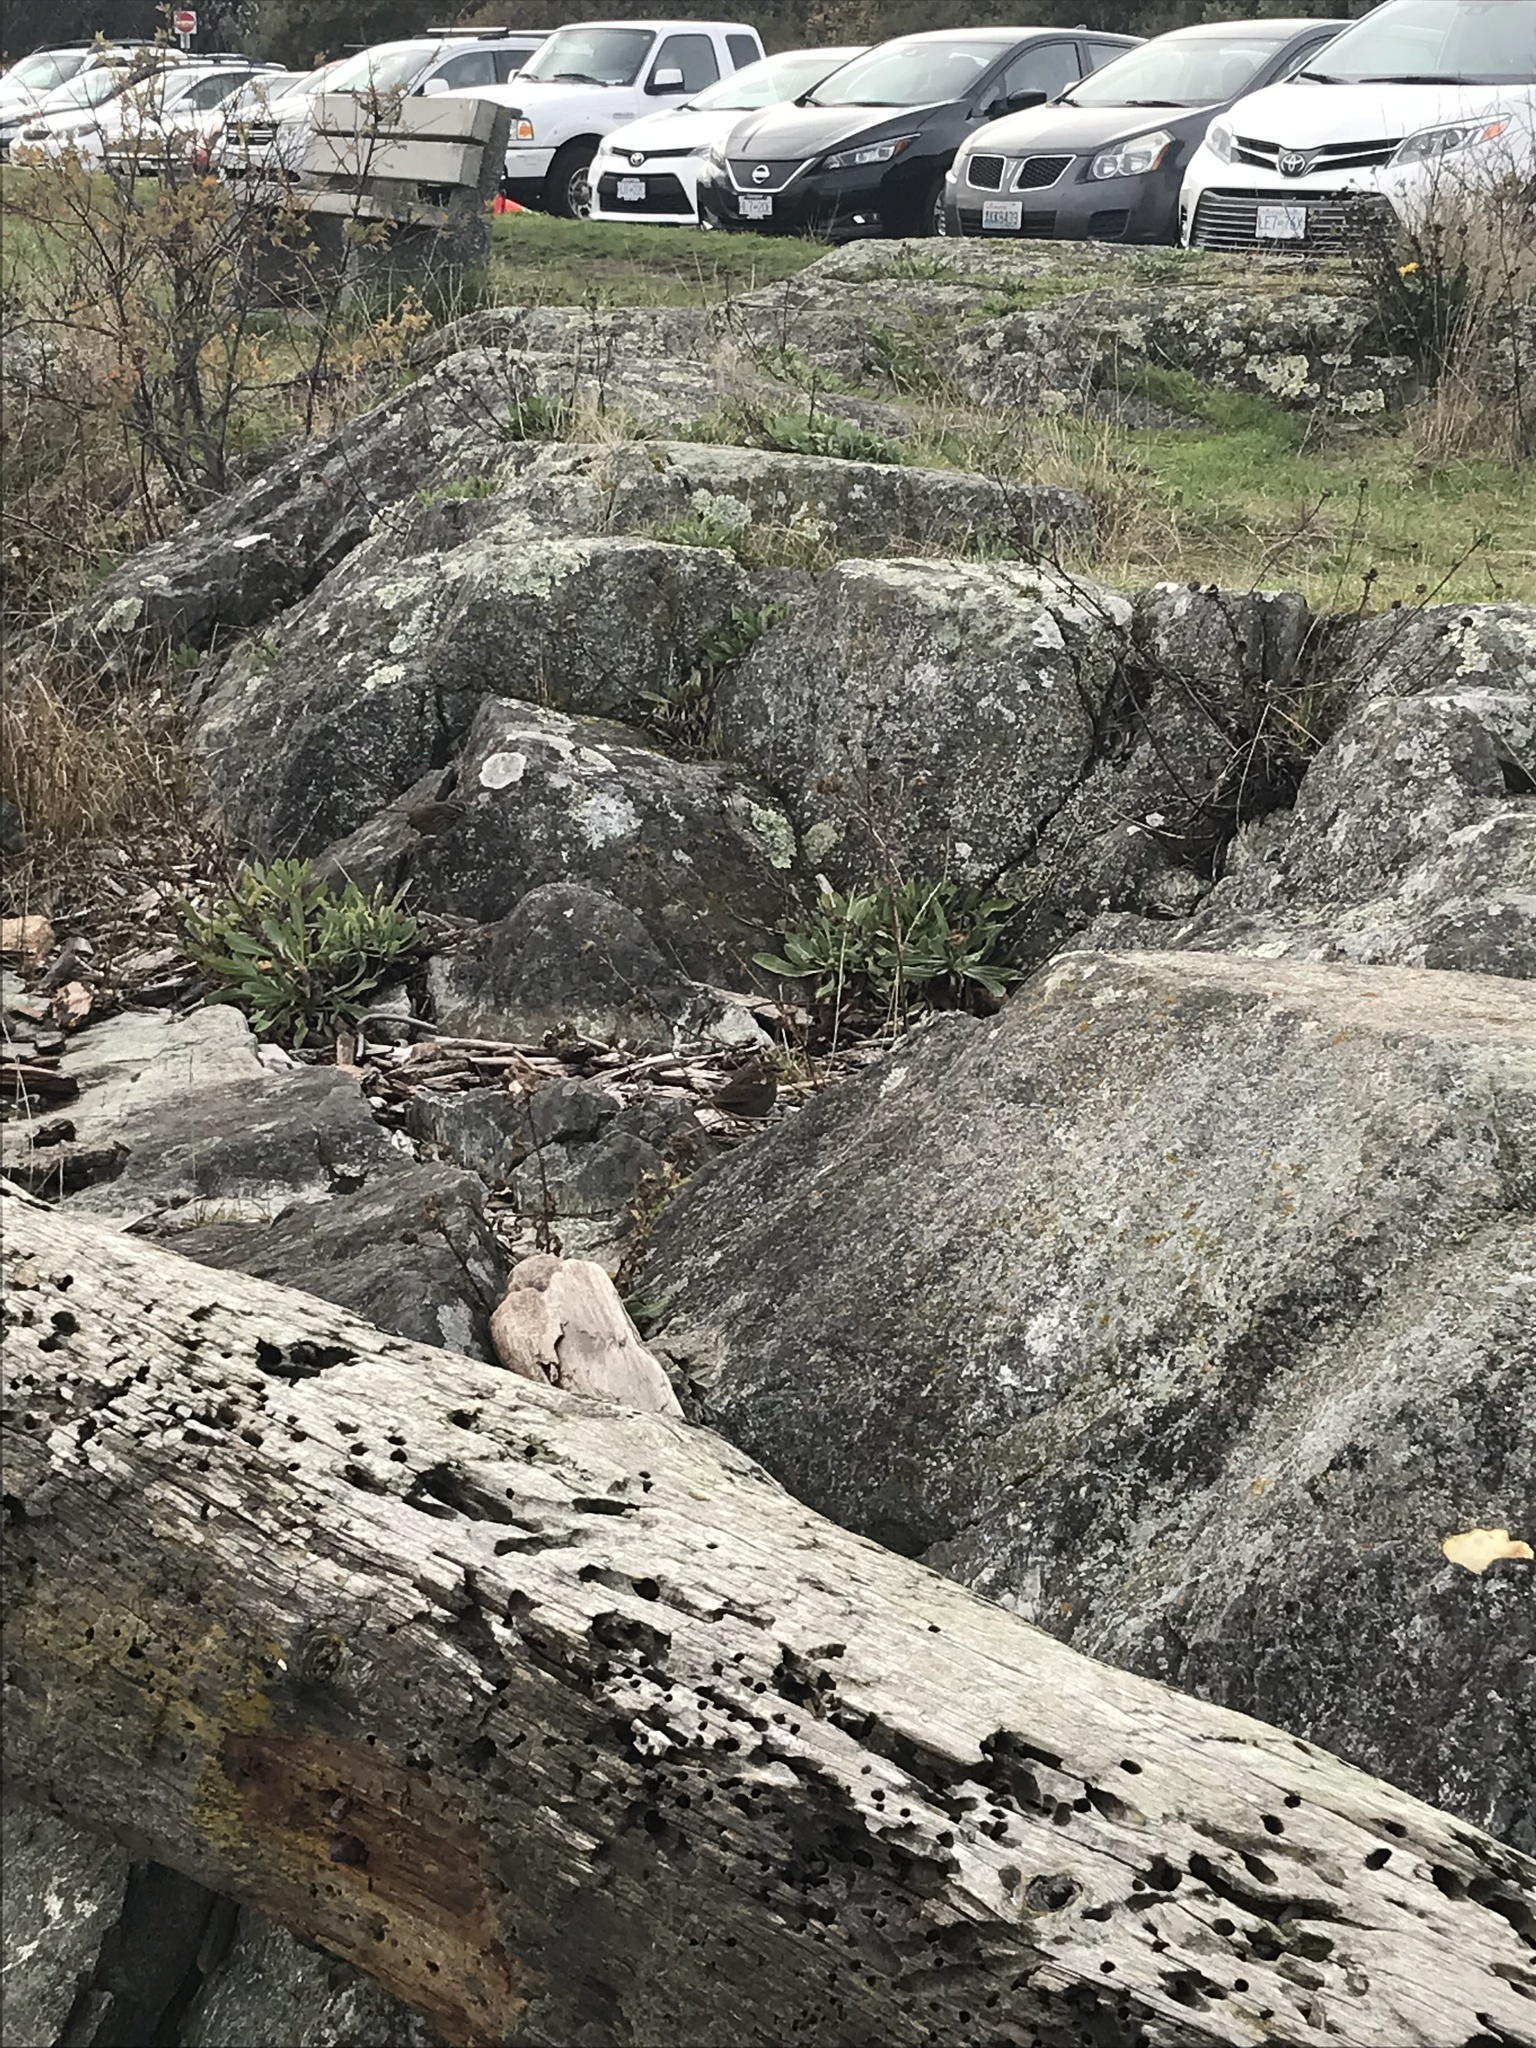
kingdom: Animalia
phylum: Chordata
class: Aves
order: Passeriformes
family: Passerellidae
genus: Melospiza
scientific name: Melospiza melodia
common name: Song sparrow
